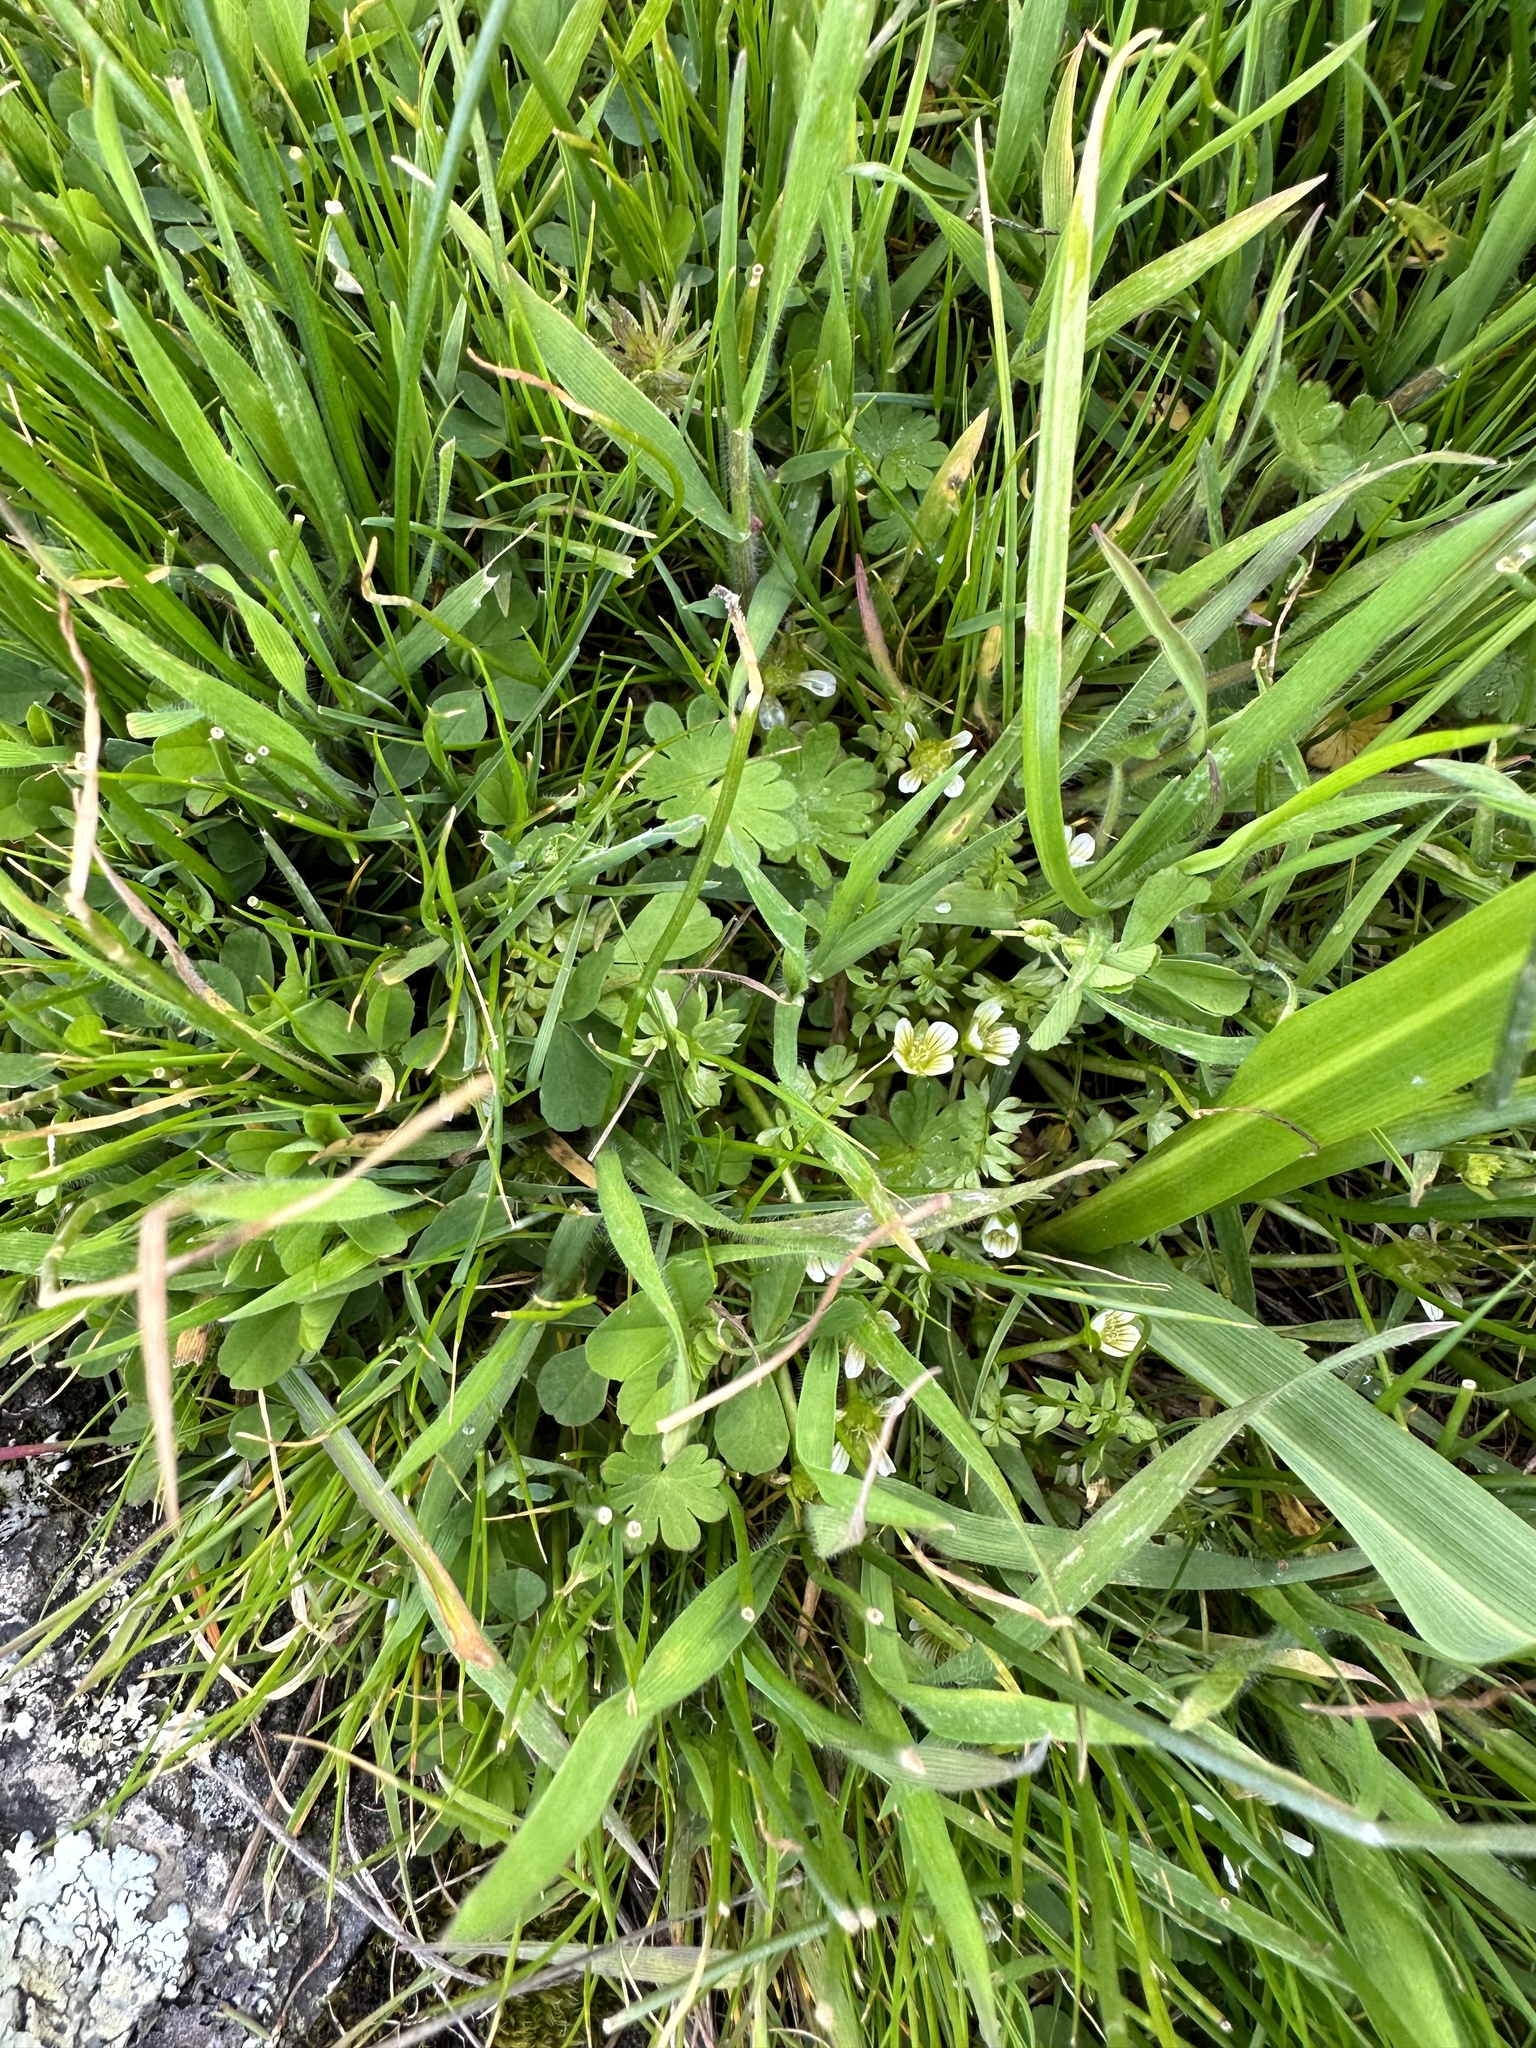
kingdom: Plantae
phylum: Tracheophyta
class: Magnoliopsida
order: Brassicales
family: Limnanthaceae
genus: Limnanthes
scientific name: Limnanthes macounii
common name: Macoun's meadowfoam
